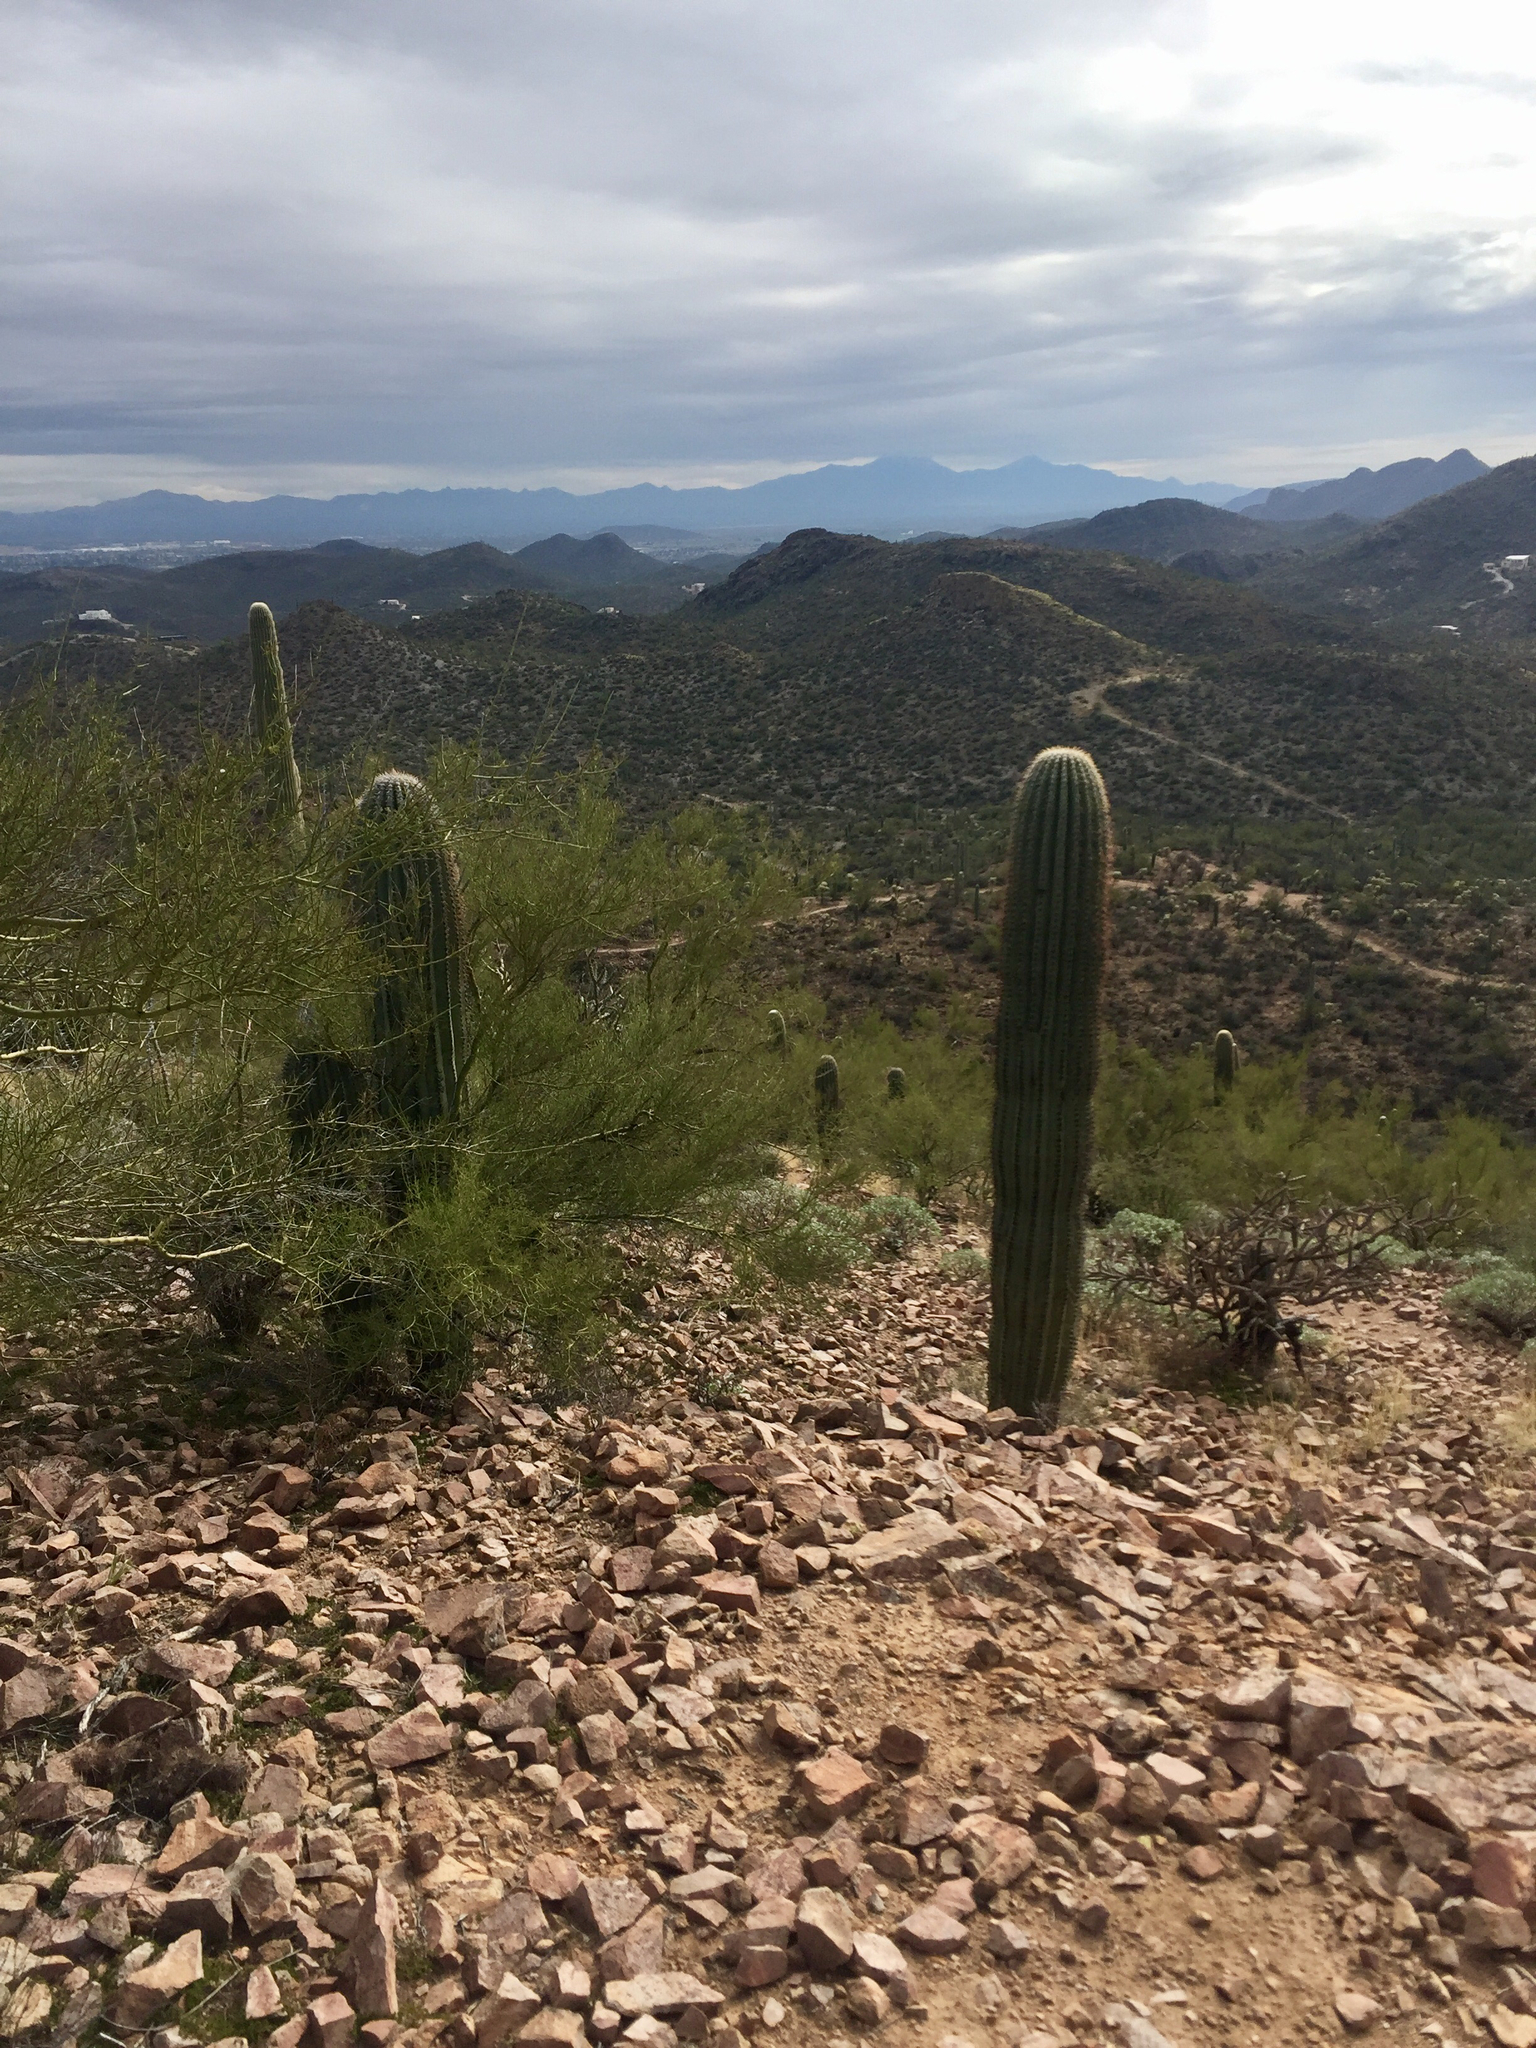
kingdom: Plantae
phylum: Tracheophyta
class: Magnoliopsida
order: Caryophyllales
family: Cactaceae
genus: Carnegiea
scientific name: Carnegiea gigantea
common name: Saguaro
